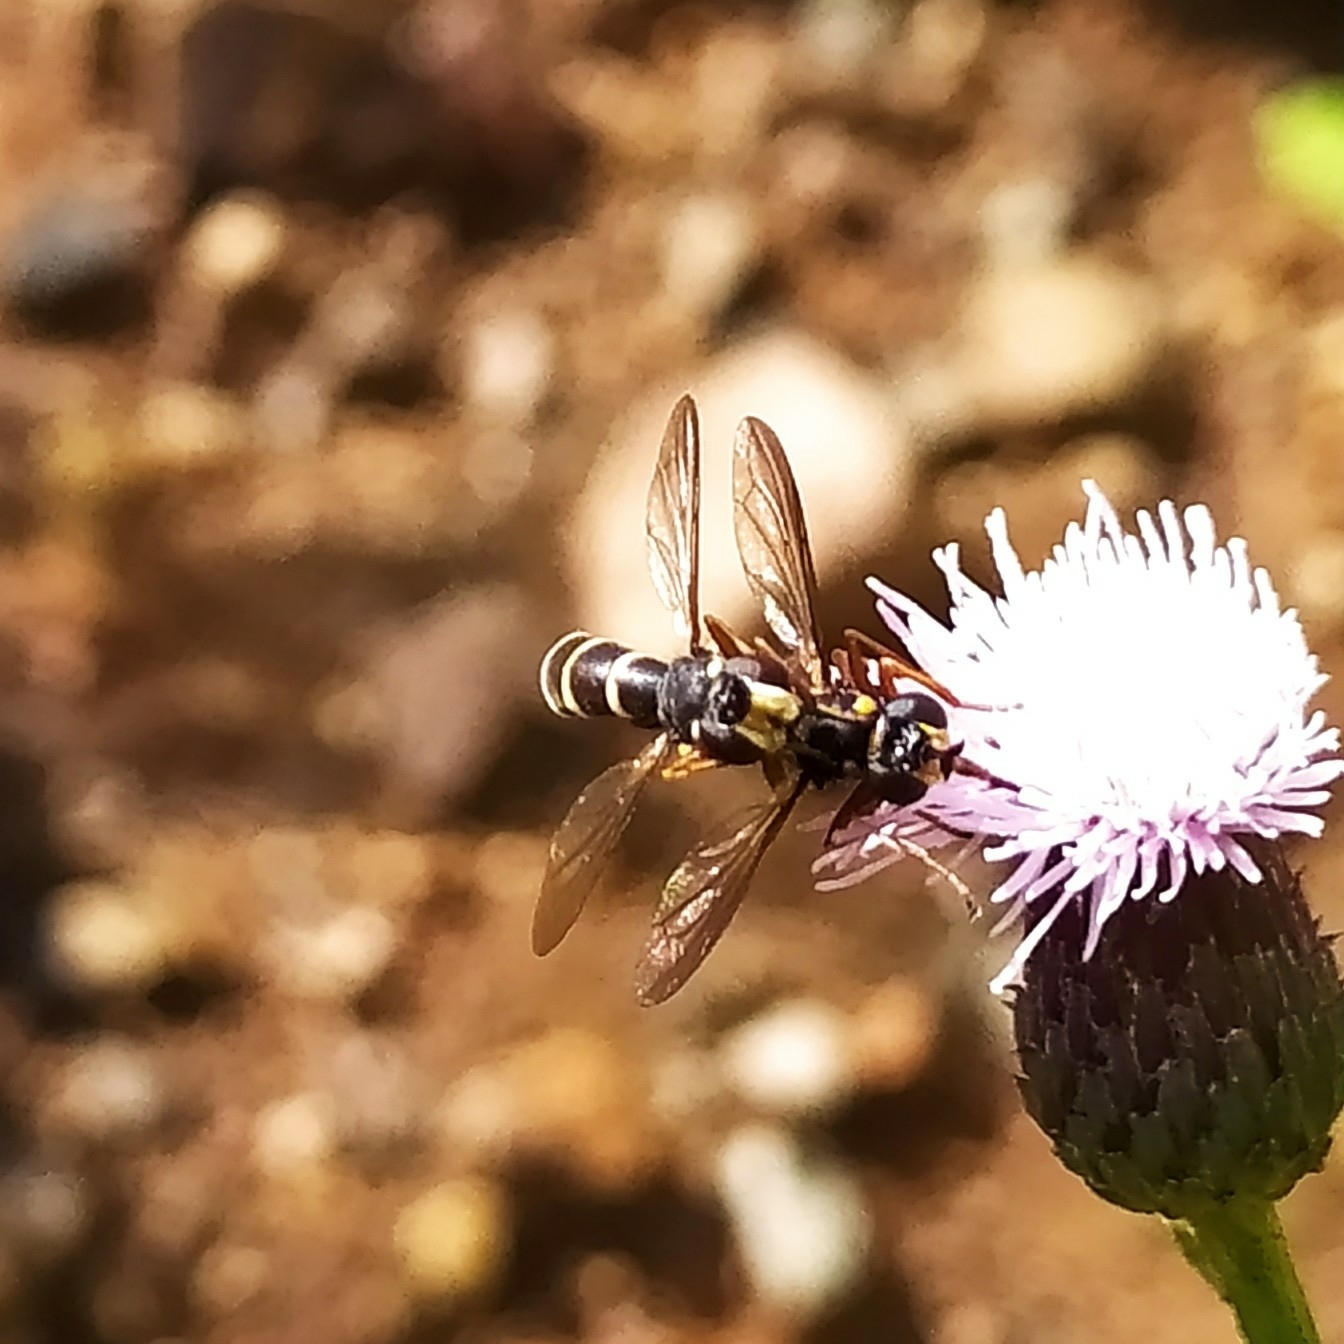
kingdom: Animalia
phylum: Arthropoda
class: Insecta
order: Diptera
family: Conopidae
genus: Conops
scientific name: Conops quadrifasciatus
